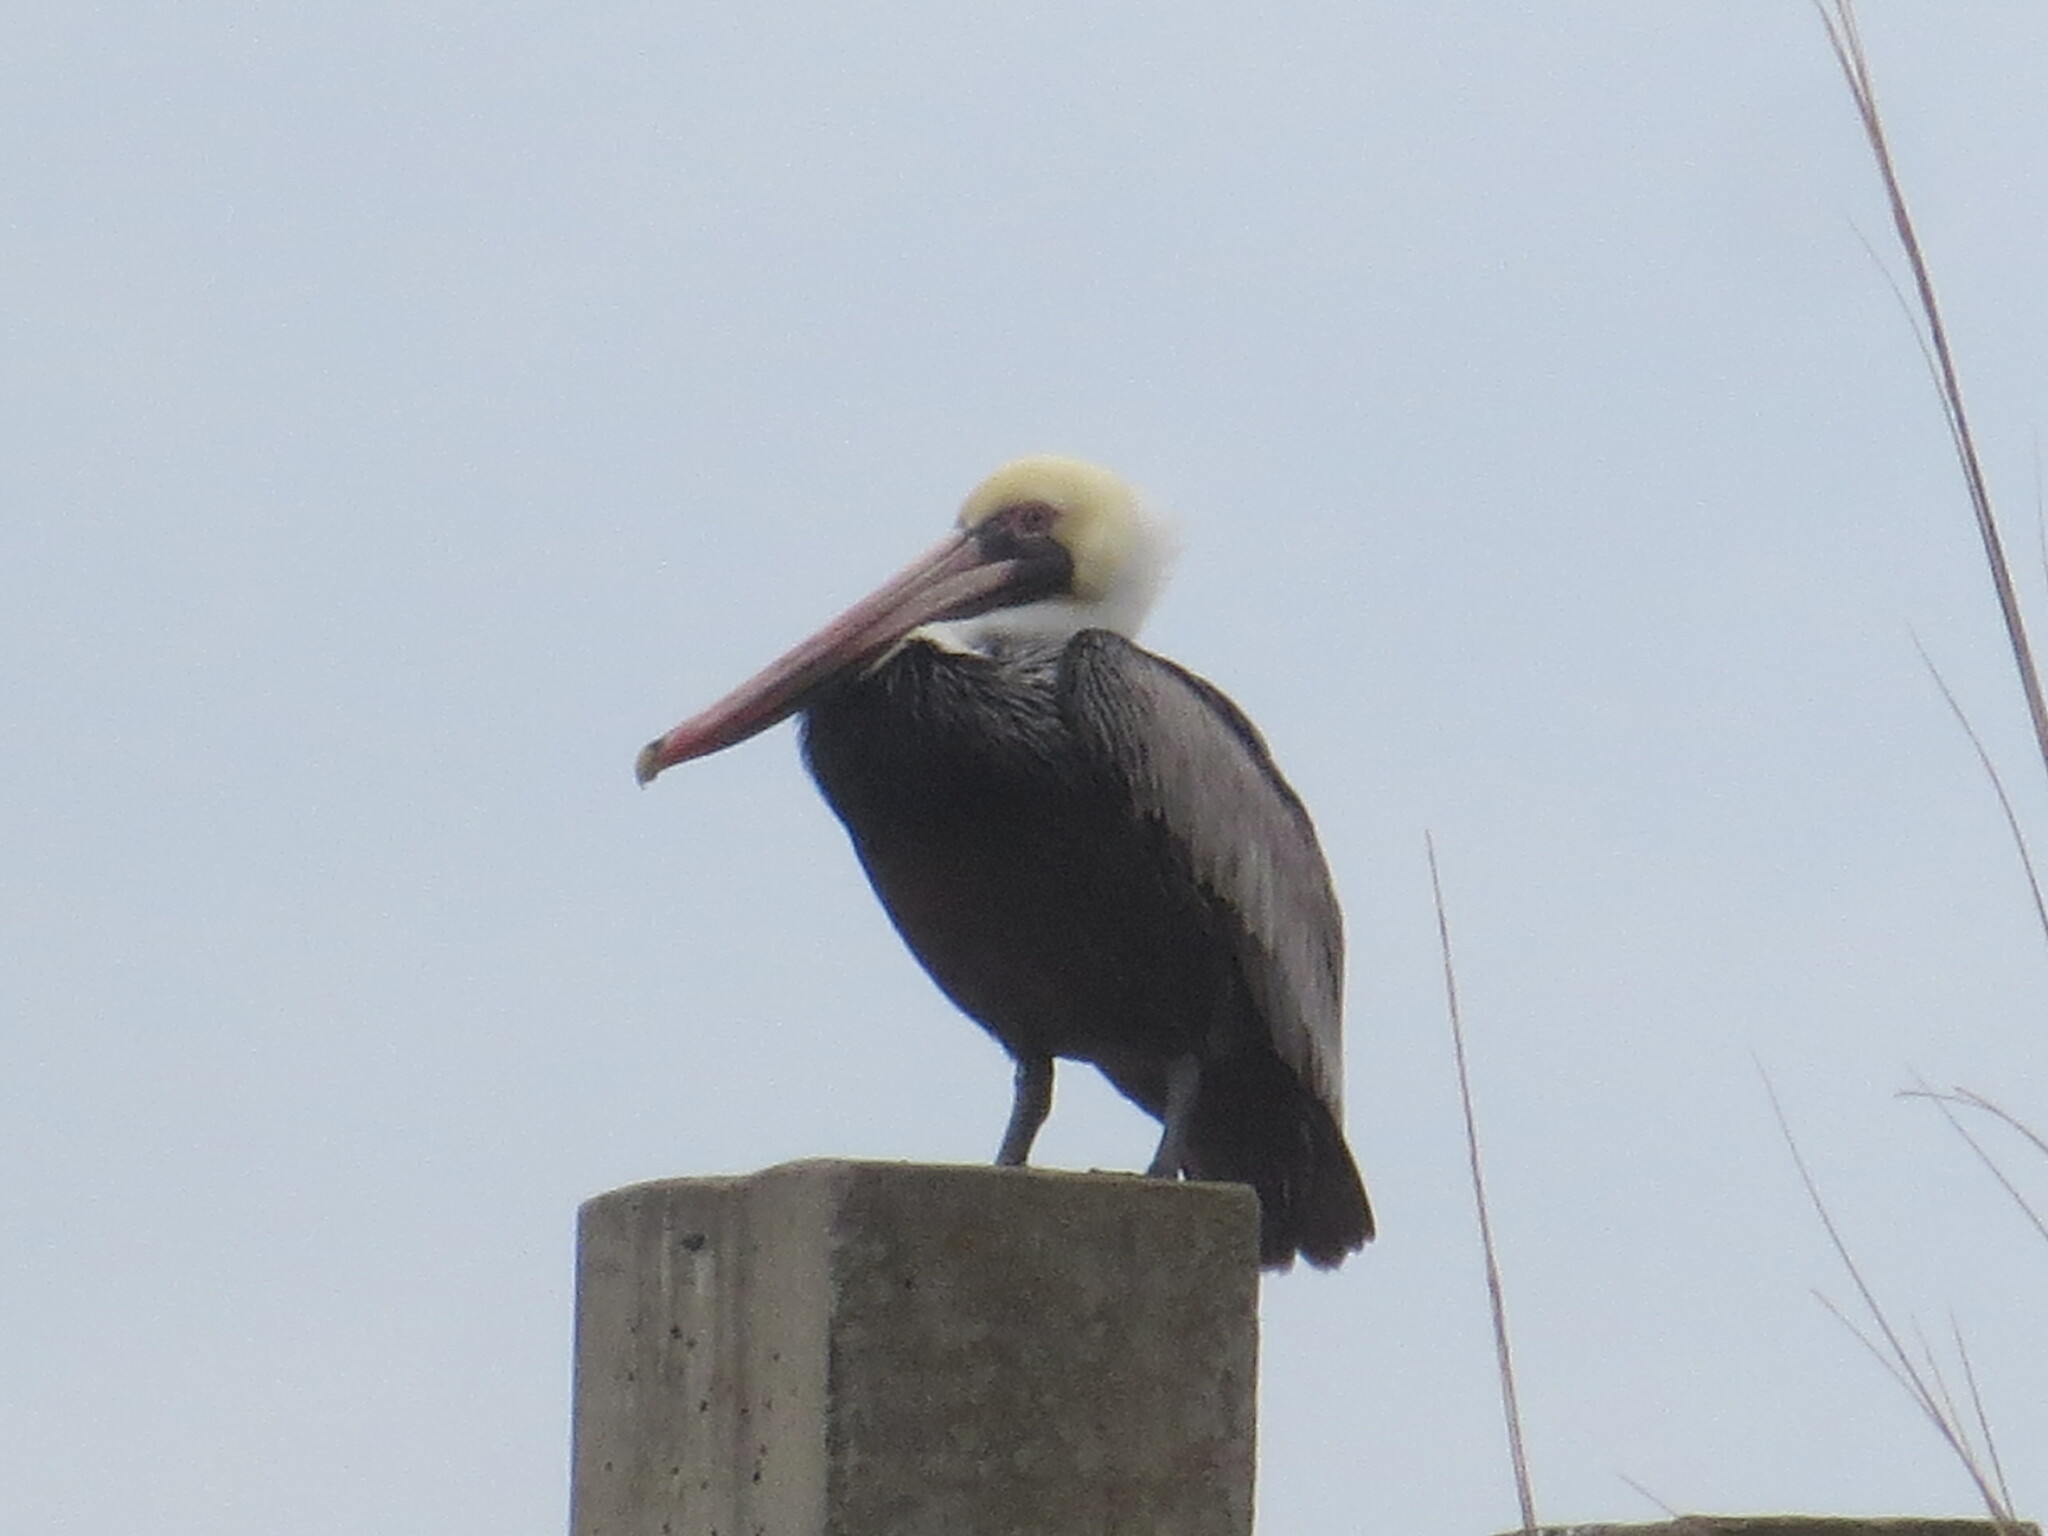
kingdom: Animalia
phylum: Chordata
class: Aves
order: Pelecaniformes
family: Pelecanidae
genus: Pelecanus
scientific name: Pelecanus occidentalis
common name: Brown pelican
